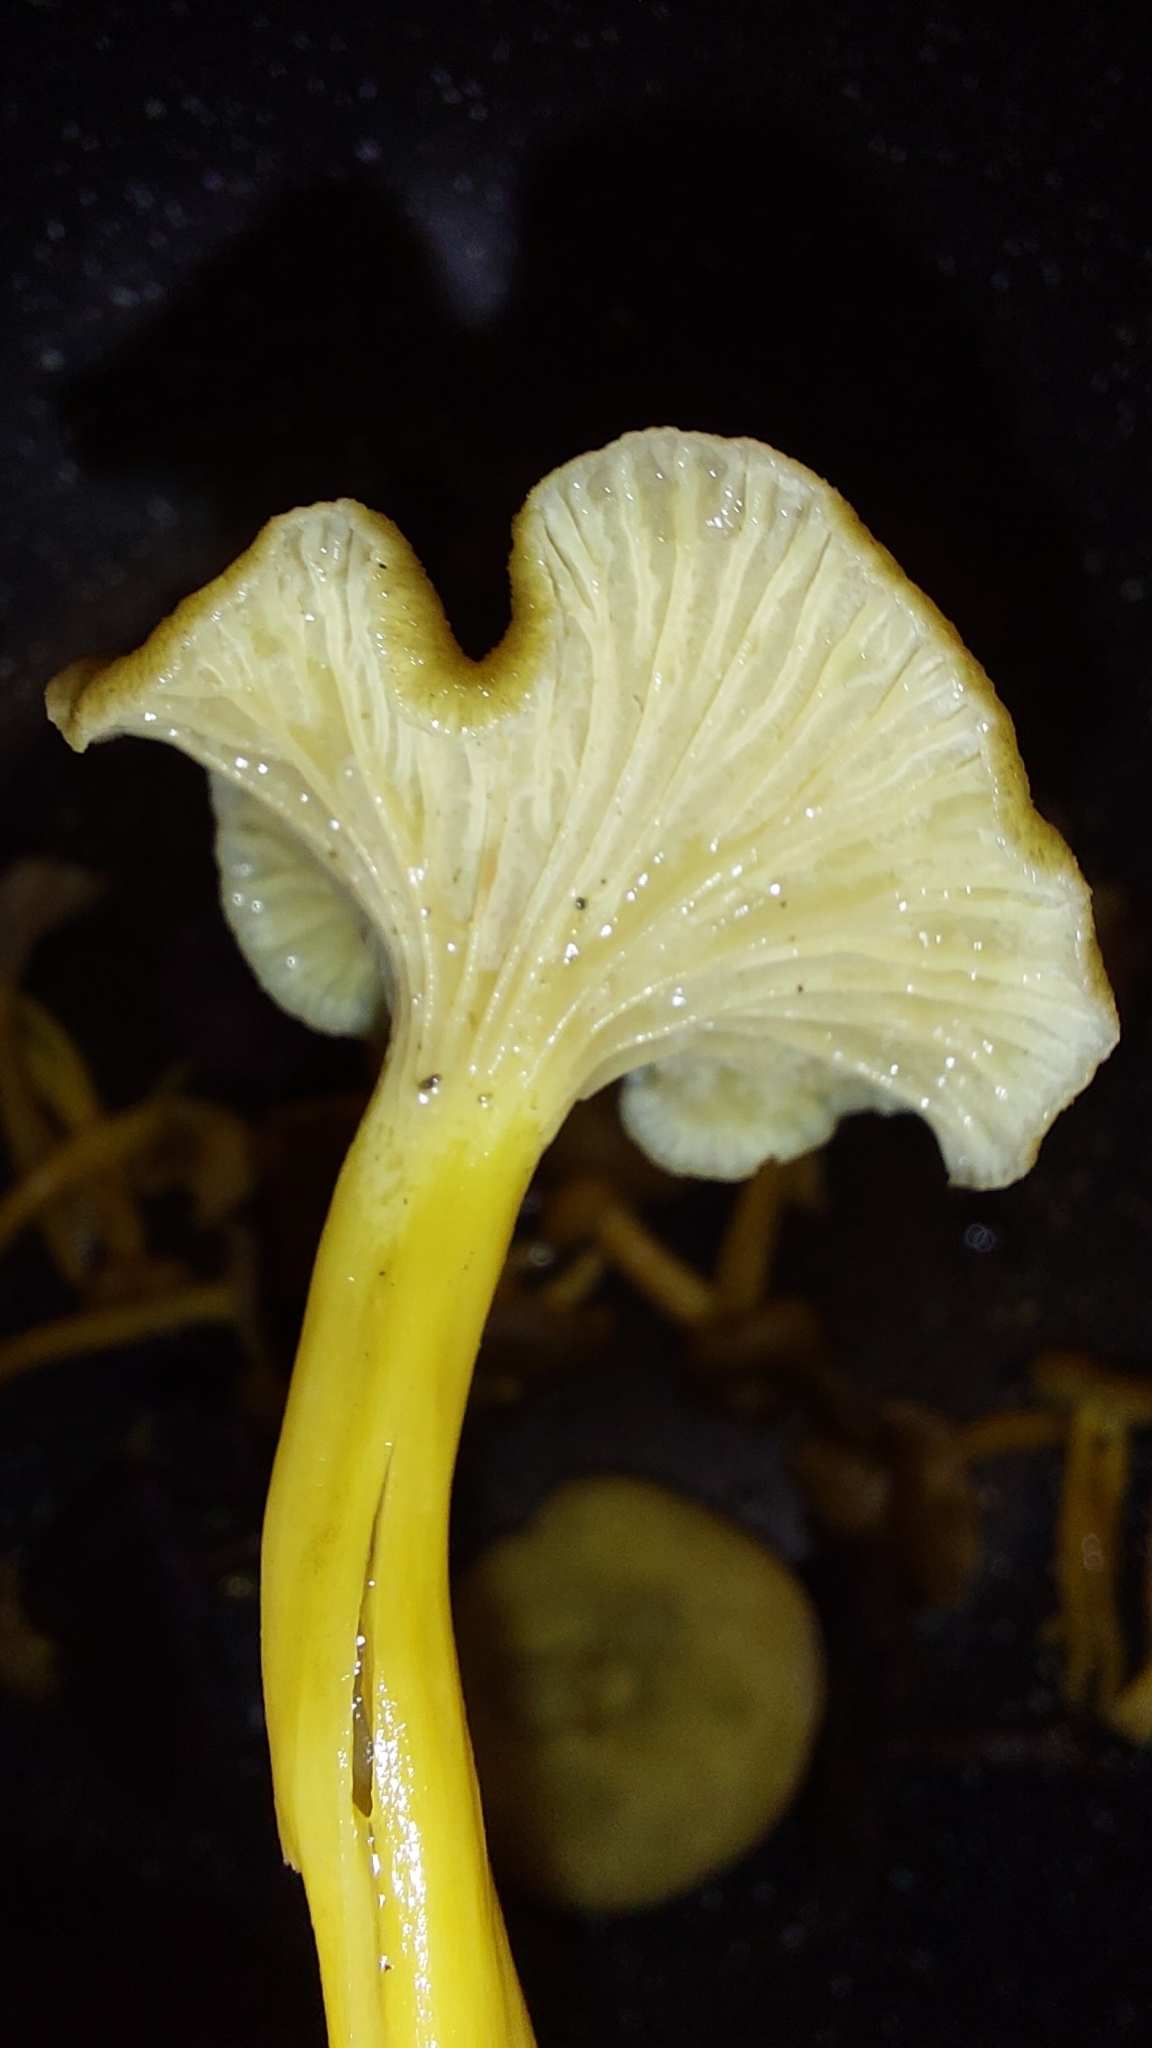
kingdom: Fungi
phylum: Basidiomycota
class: Agaricomycetes
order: Cantharellales
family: Hydnaceae
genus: Craterellus
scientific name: Craterellus tubaeformis
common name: Yellowfoot
